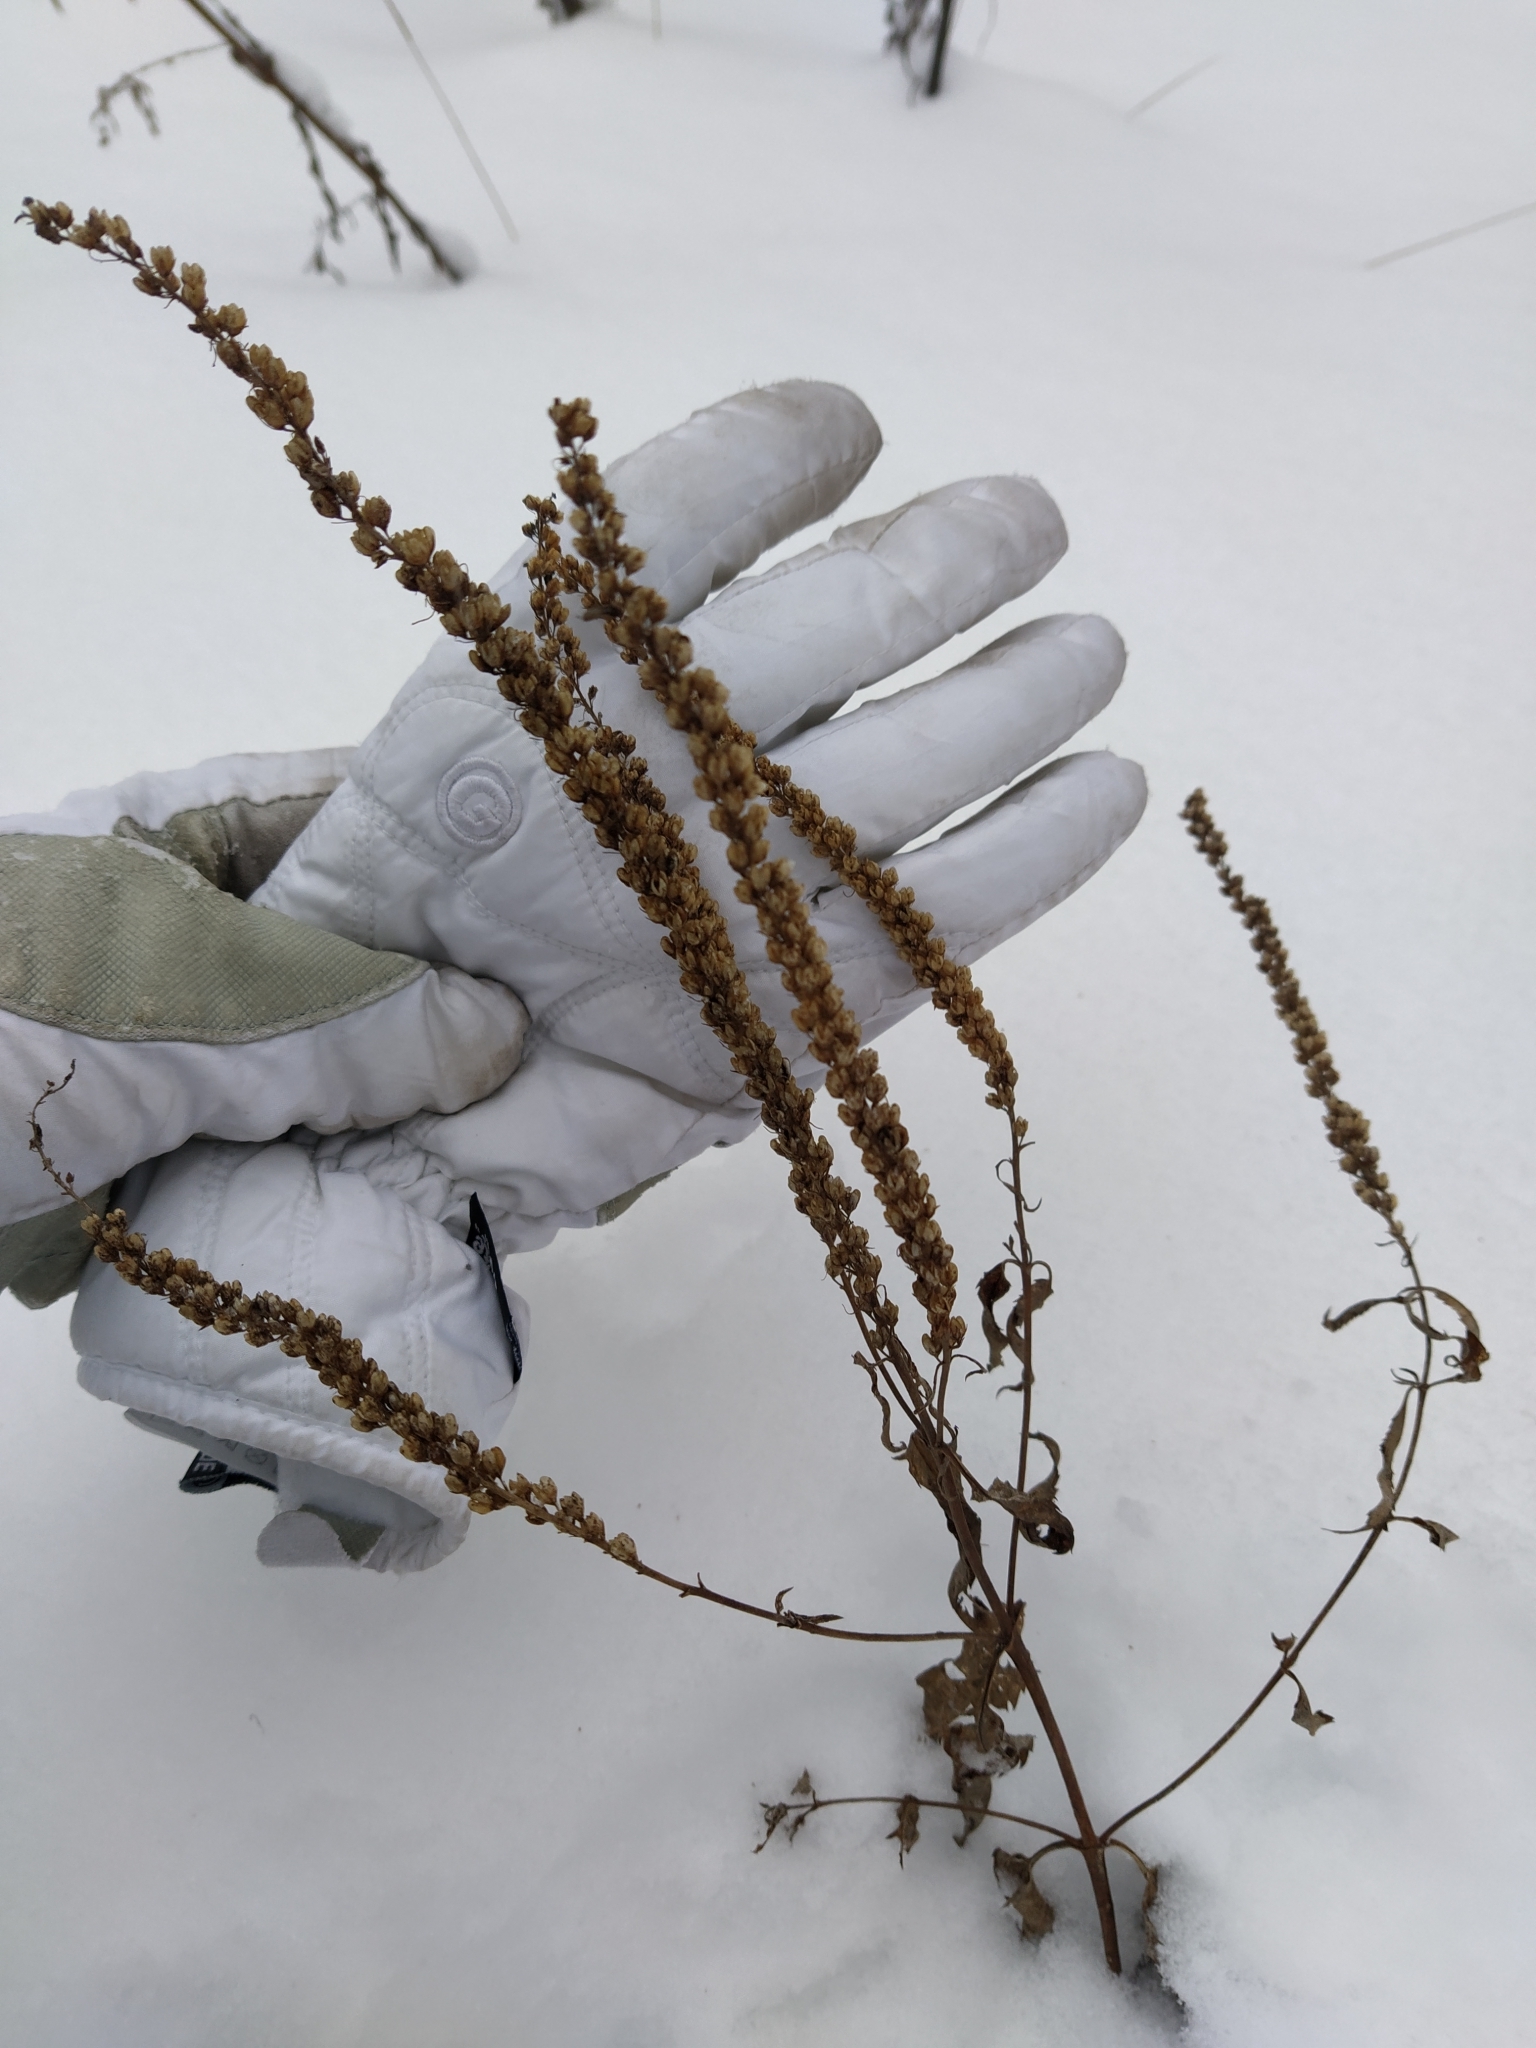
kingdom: Plantae
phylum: Tracheophyta
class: Magnoliopsida
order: Lamiales
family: Plantaginaceae
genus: Veronica
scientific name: Veronica longifolia
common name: Garden speedwell
